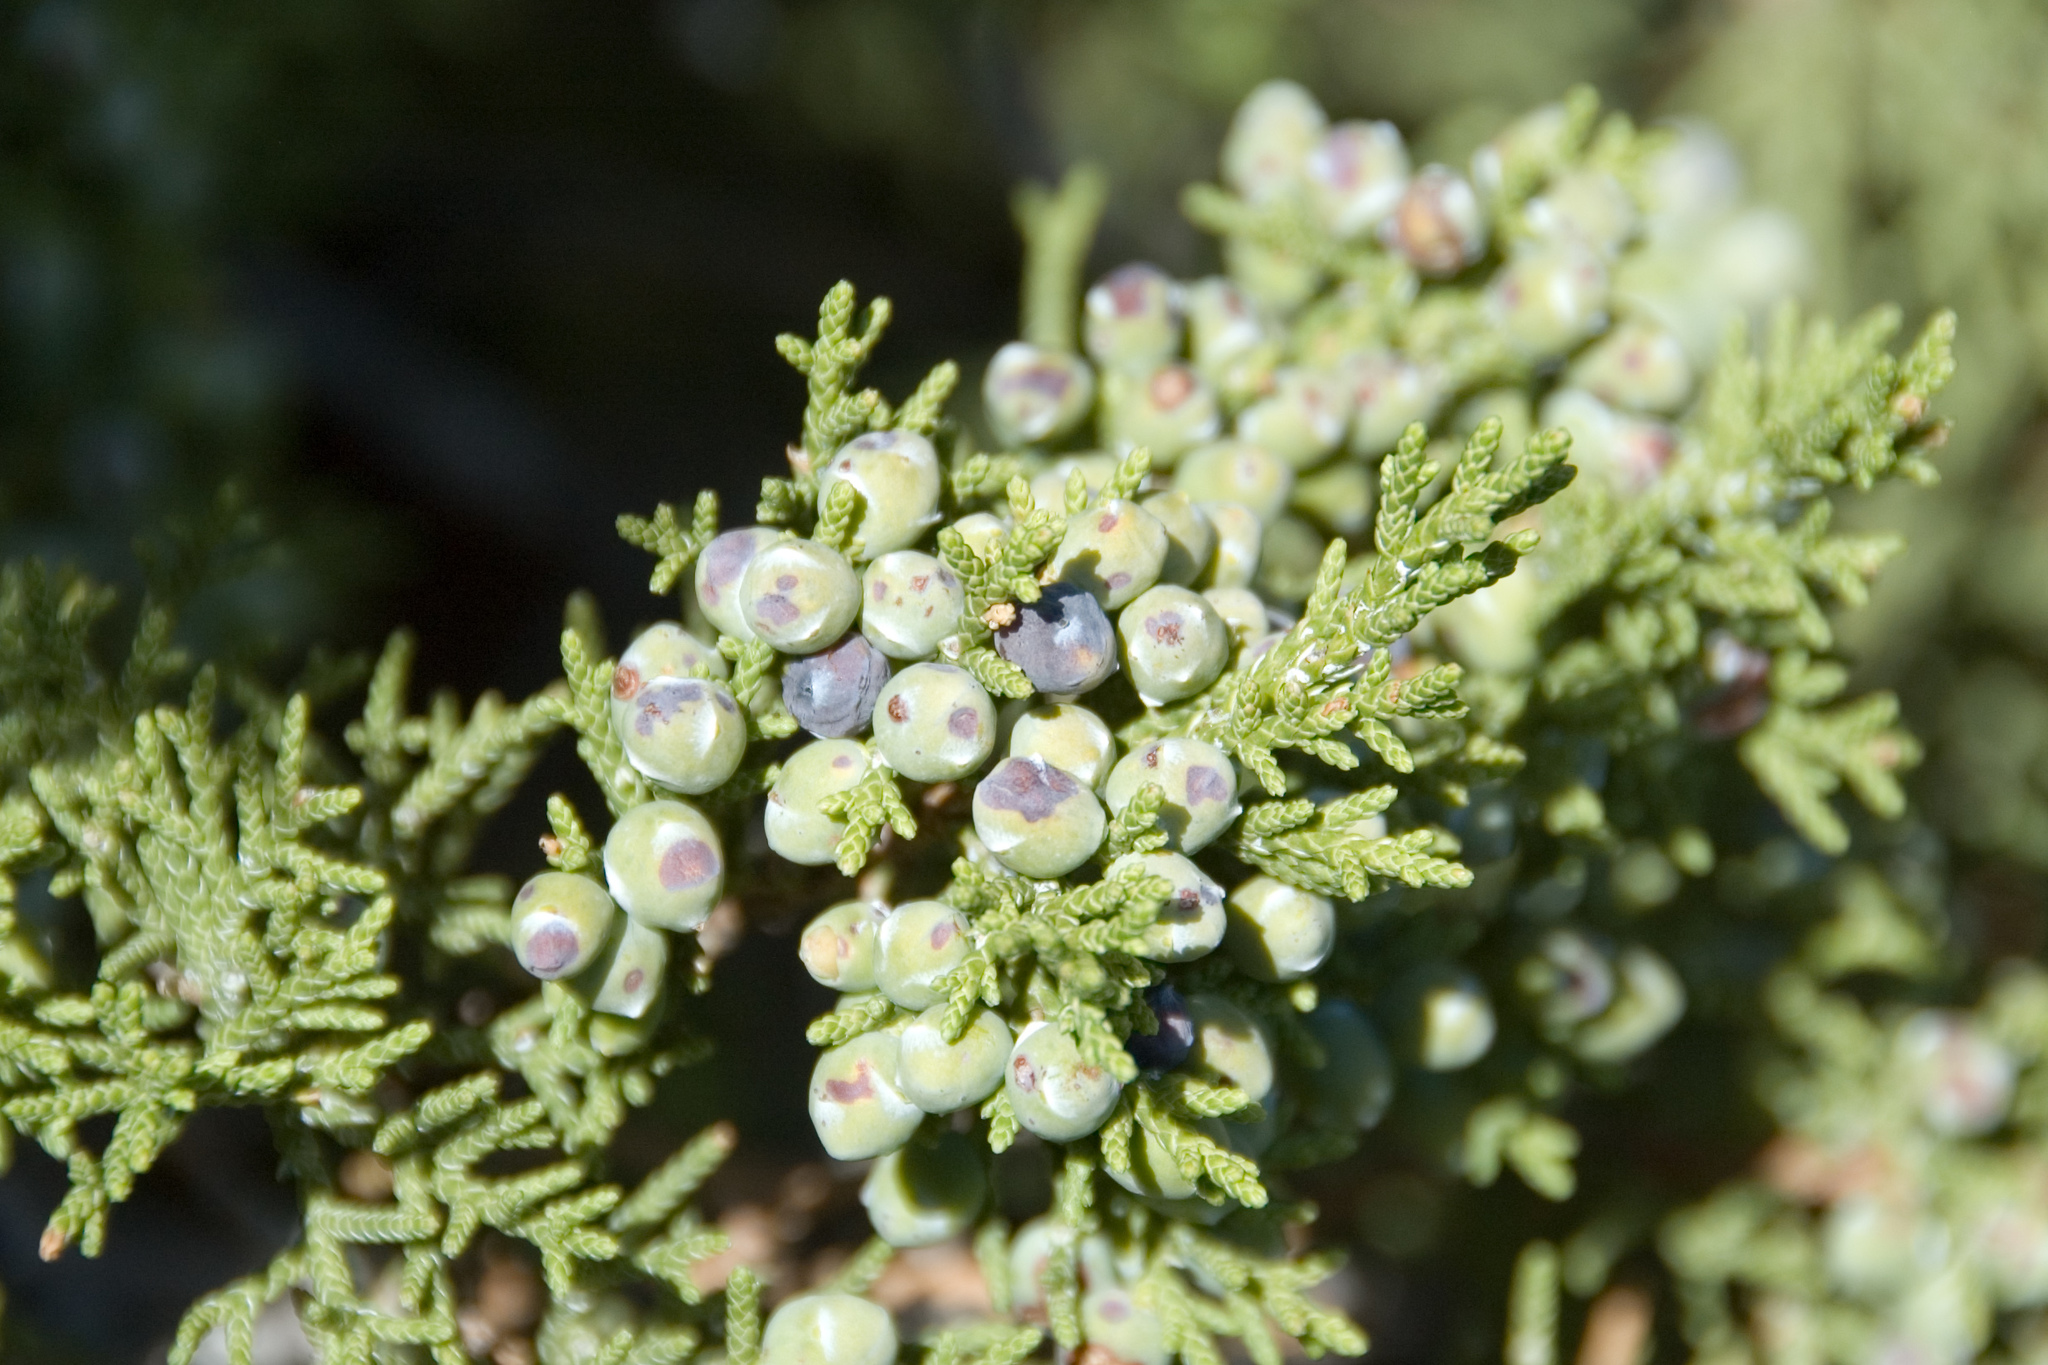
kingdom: Plantae
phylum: Tracheophyta
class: Pinopsida
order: Pinales
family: Cupressaceae
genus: Juniperus
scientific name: Juniperus monosperma
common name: One-seed juniper
